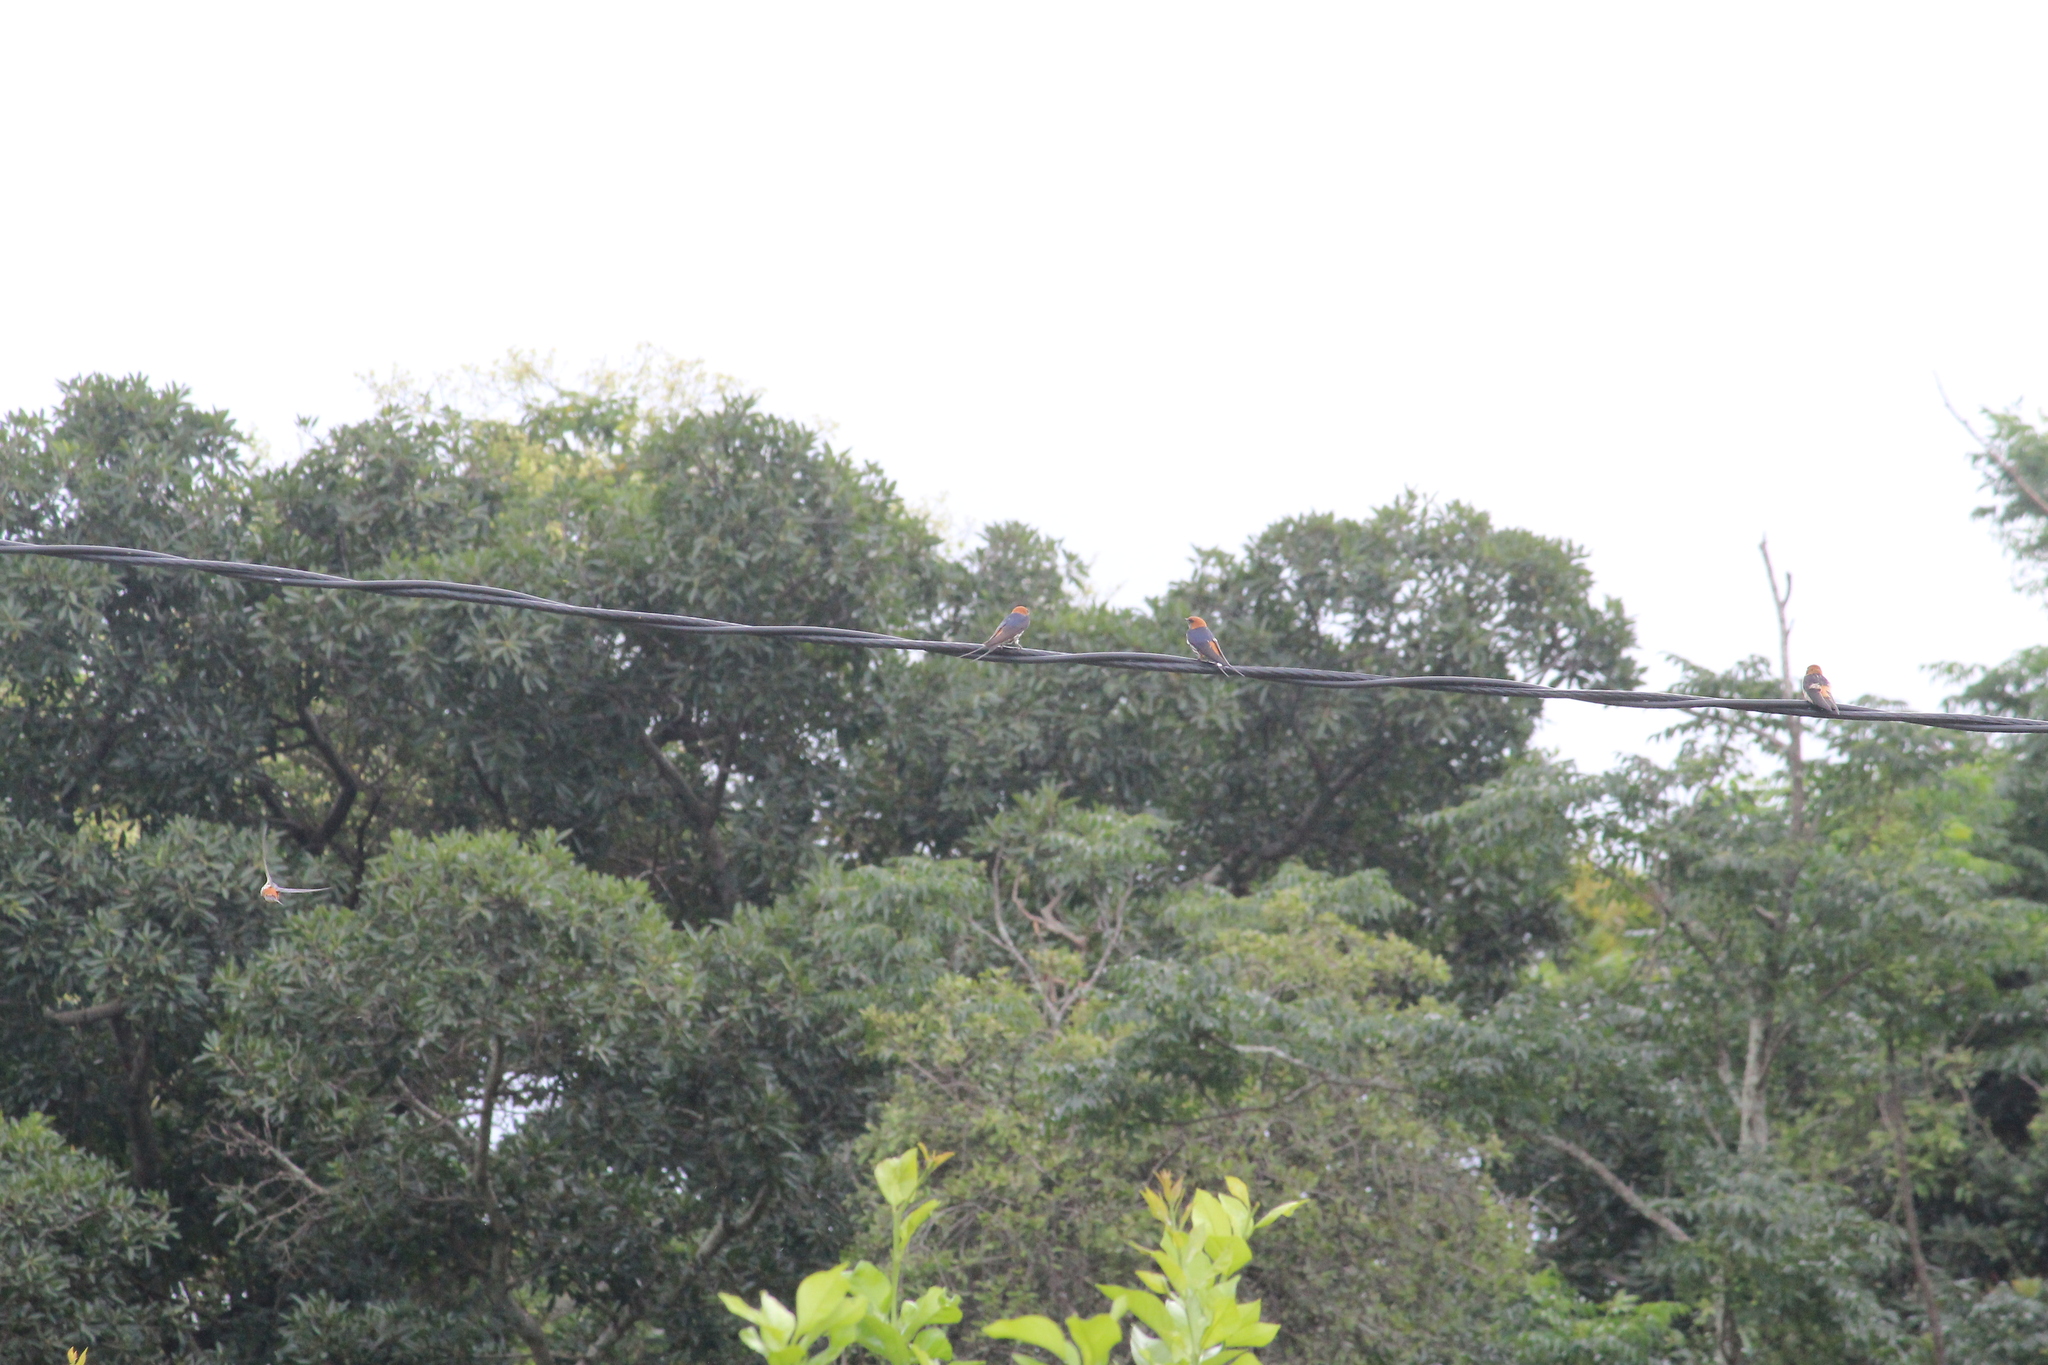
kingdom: Animalia
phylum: Chordata
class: Aves
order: Passeriformes
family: Hirundinidae
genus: Cecropis
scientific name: Cecropis abyssinica
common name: Lesser striped-swallow
